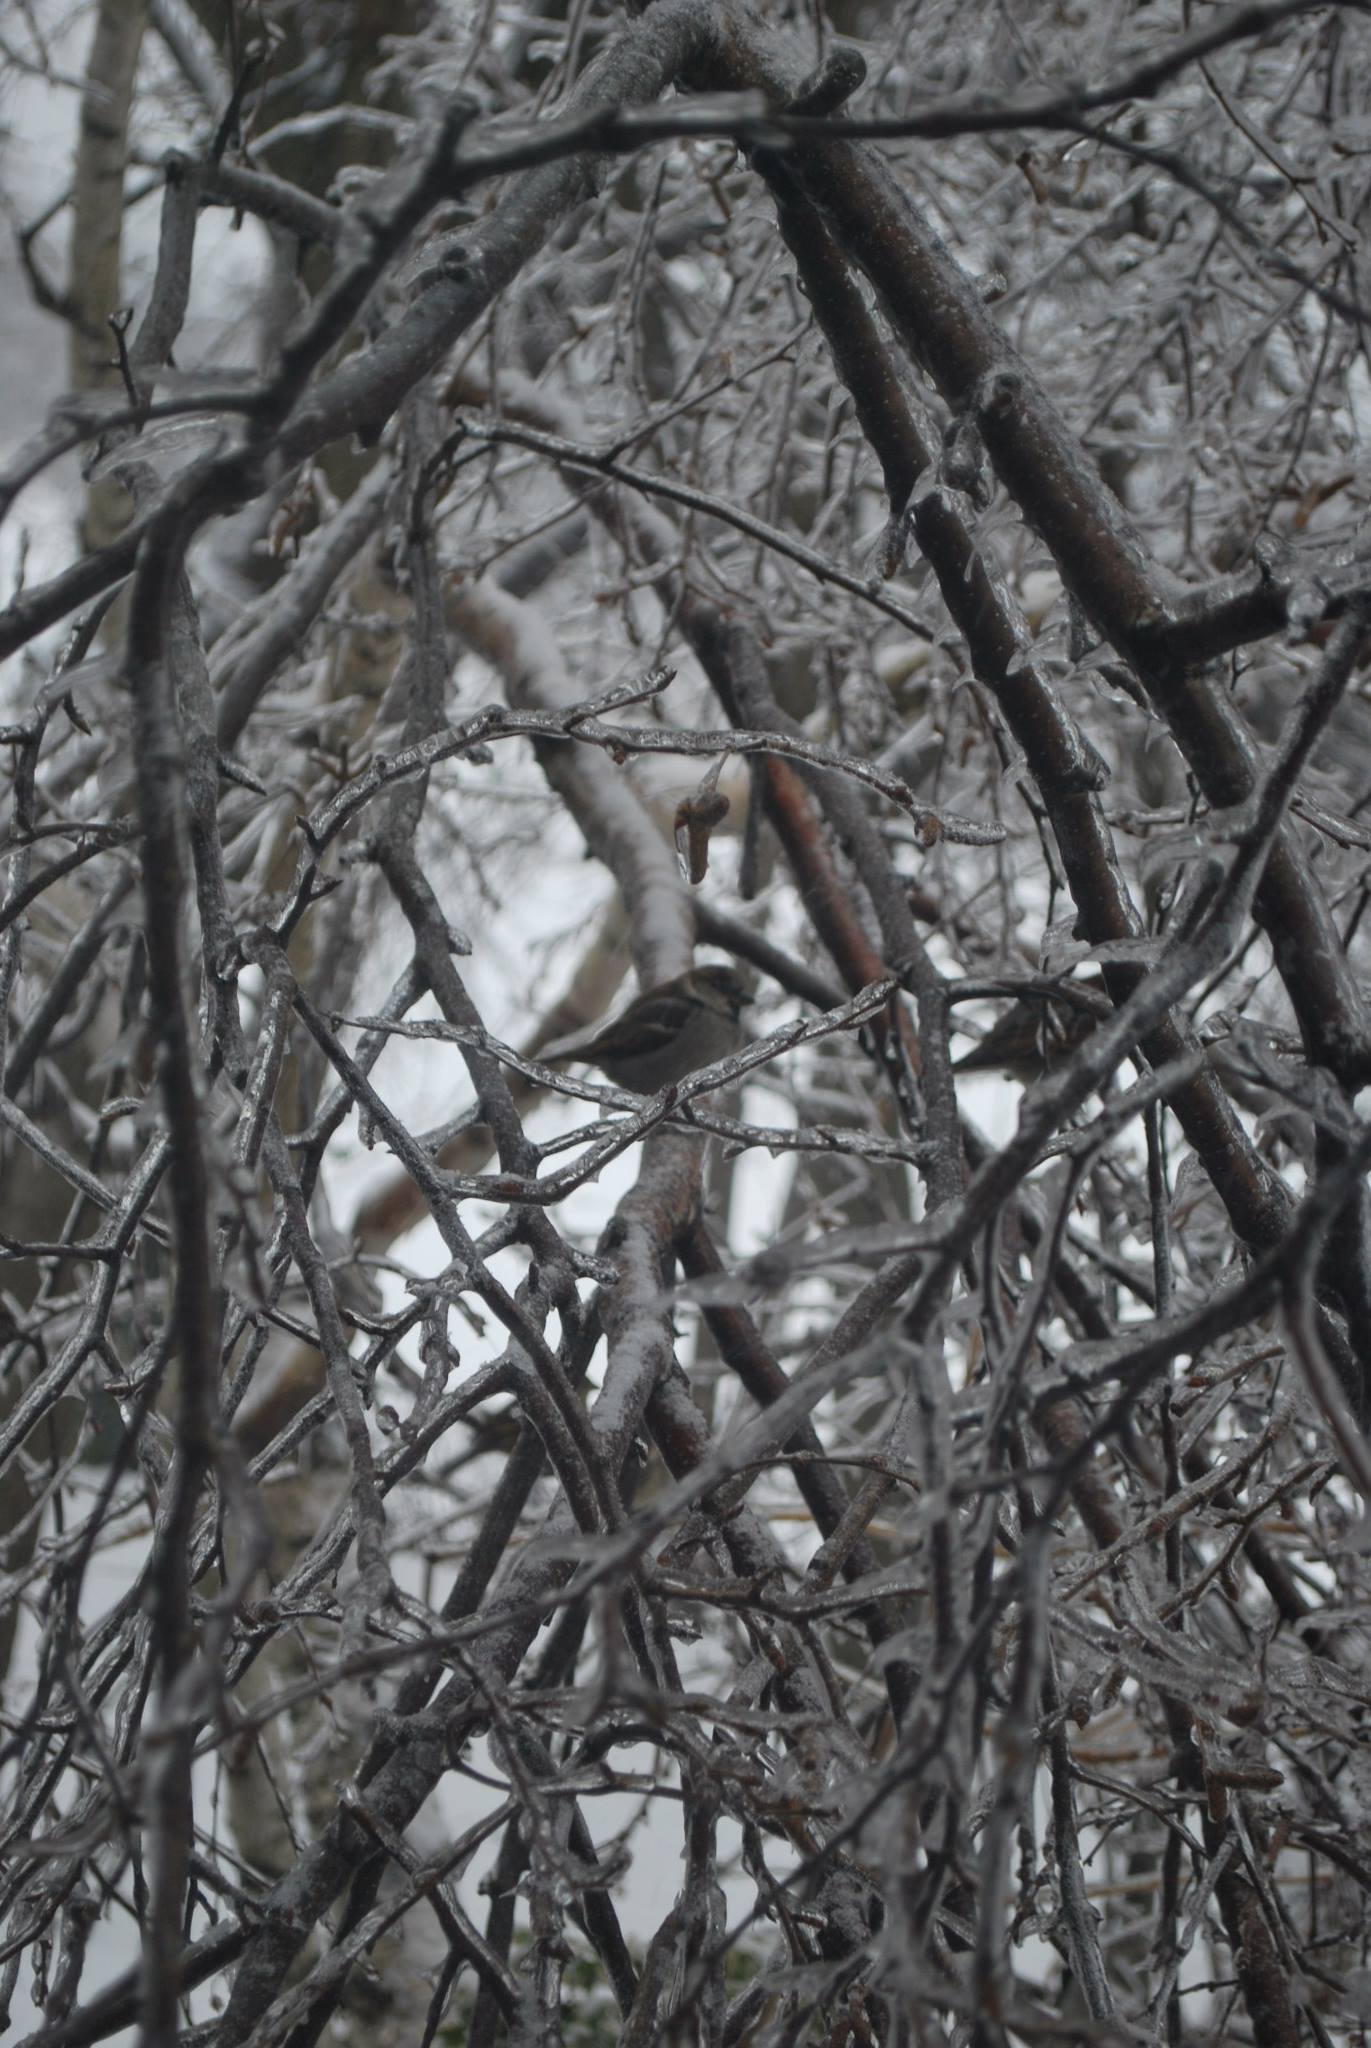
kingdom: Animalia
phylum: Chordata
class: Aves
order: Passeriformes
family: Passeridae
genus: Passer
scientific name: Passer domesticus
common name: House sparrow
